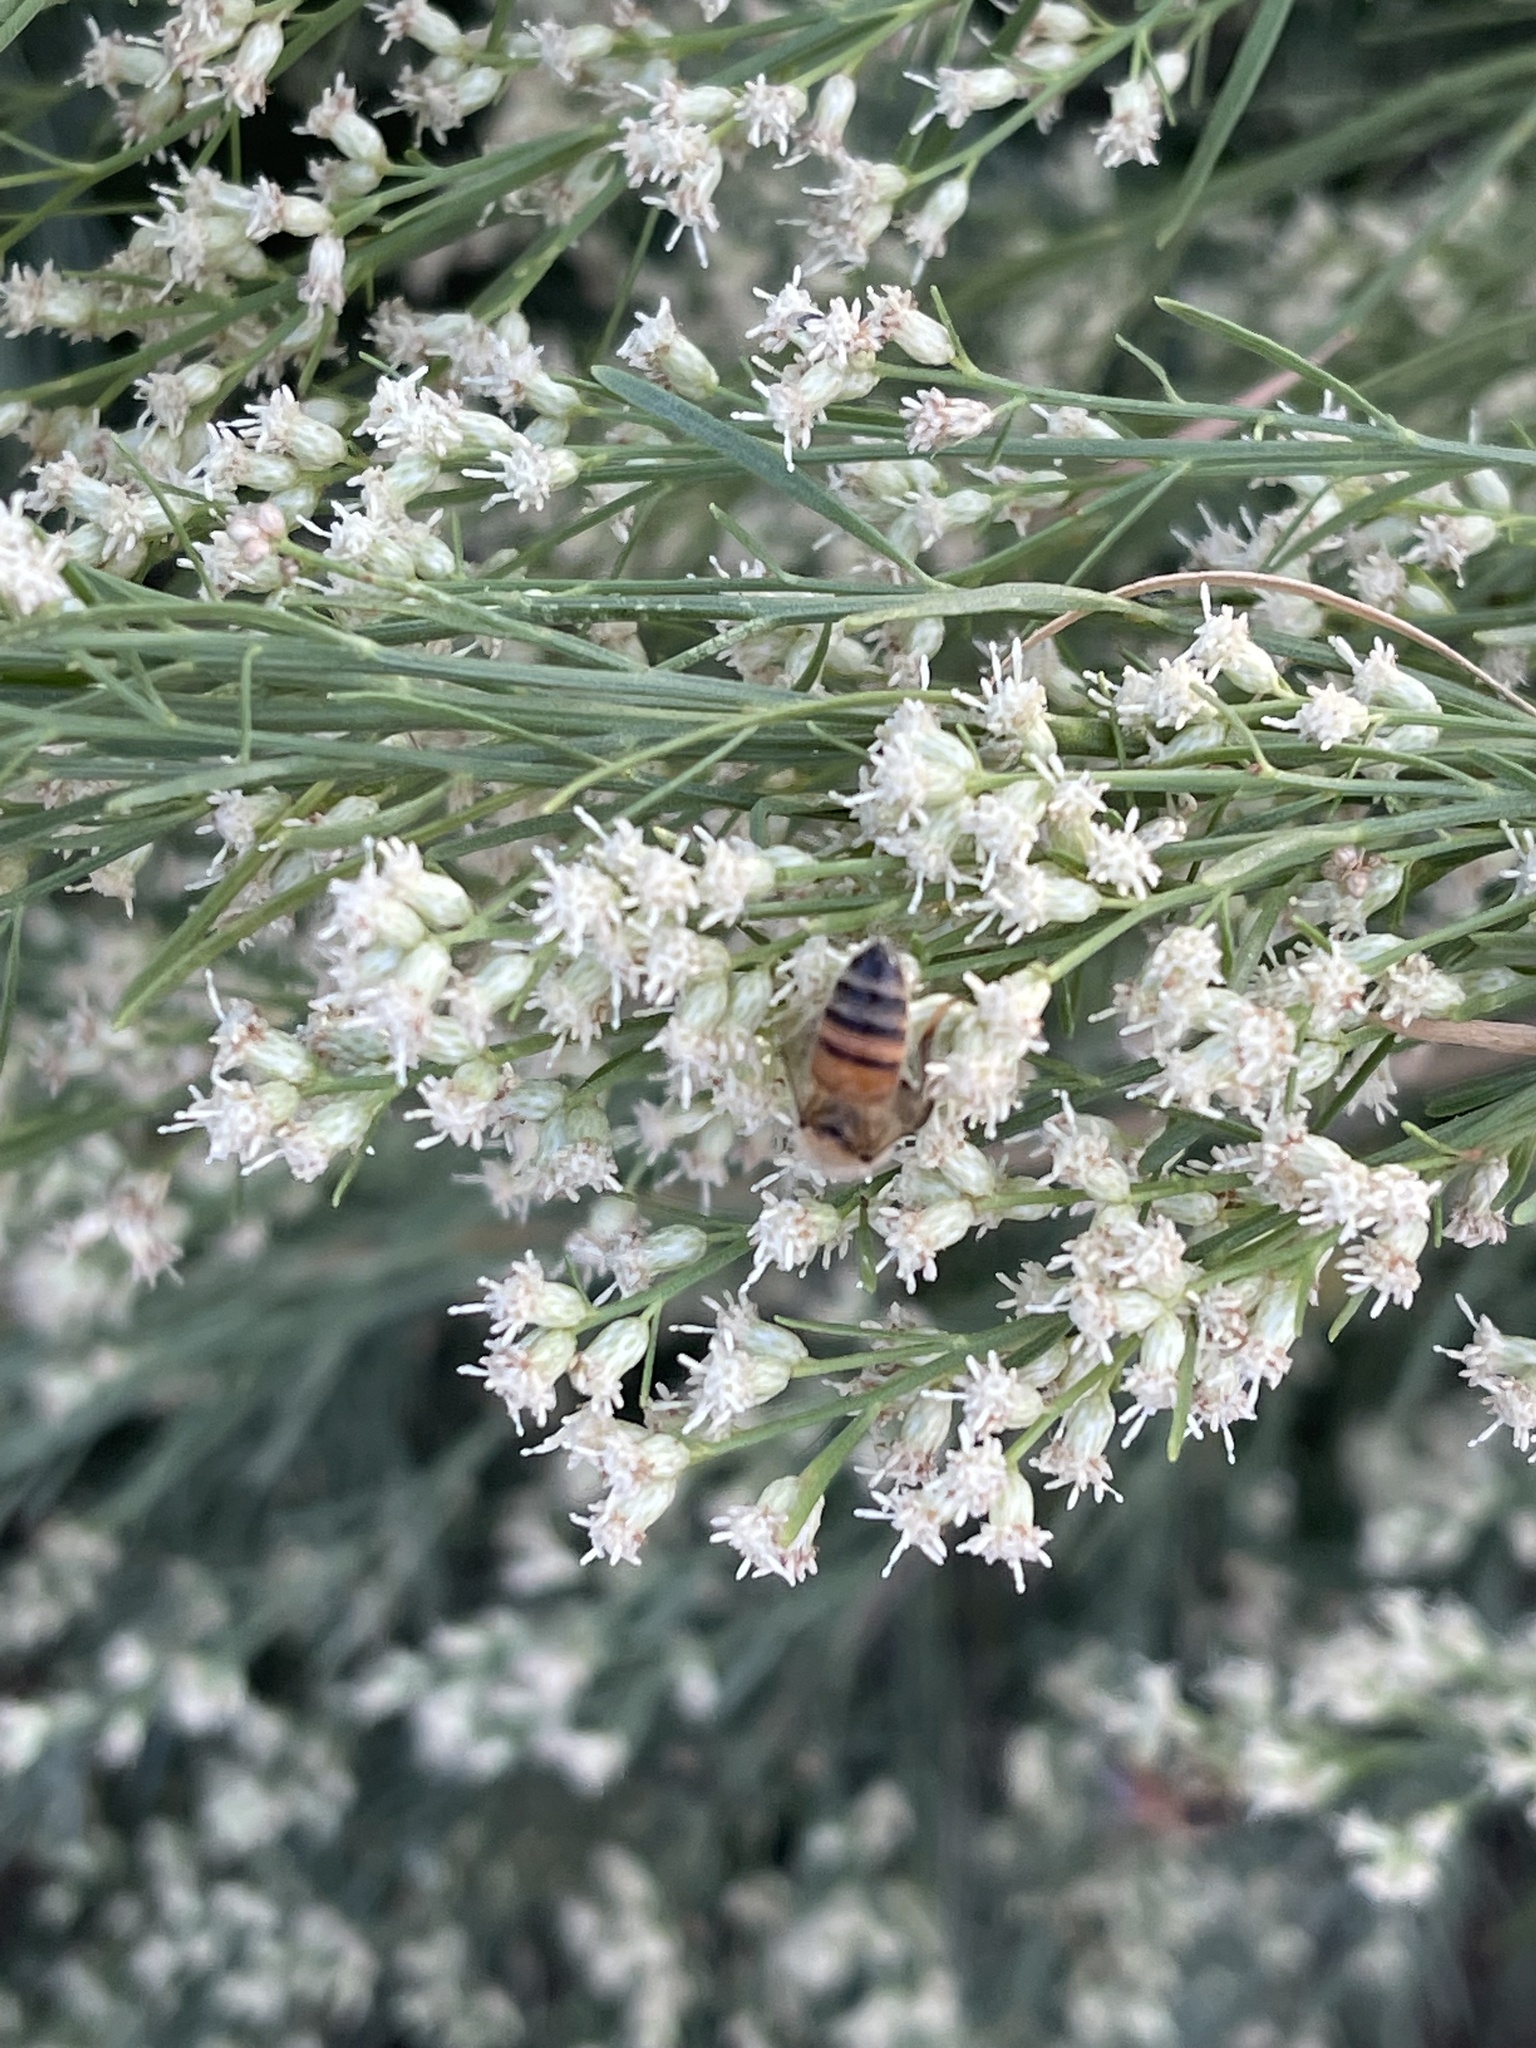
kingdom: Animalia
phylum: Arthropoda
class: Insecta
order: Hymenoptera
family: Apidae
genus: Apis
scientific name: Apis mellifera
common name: Honey bee
